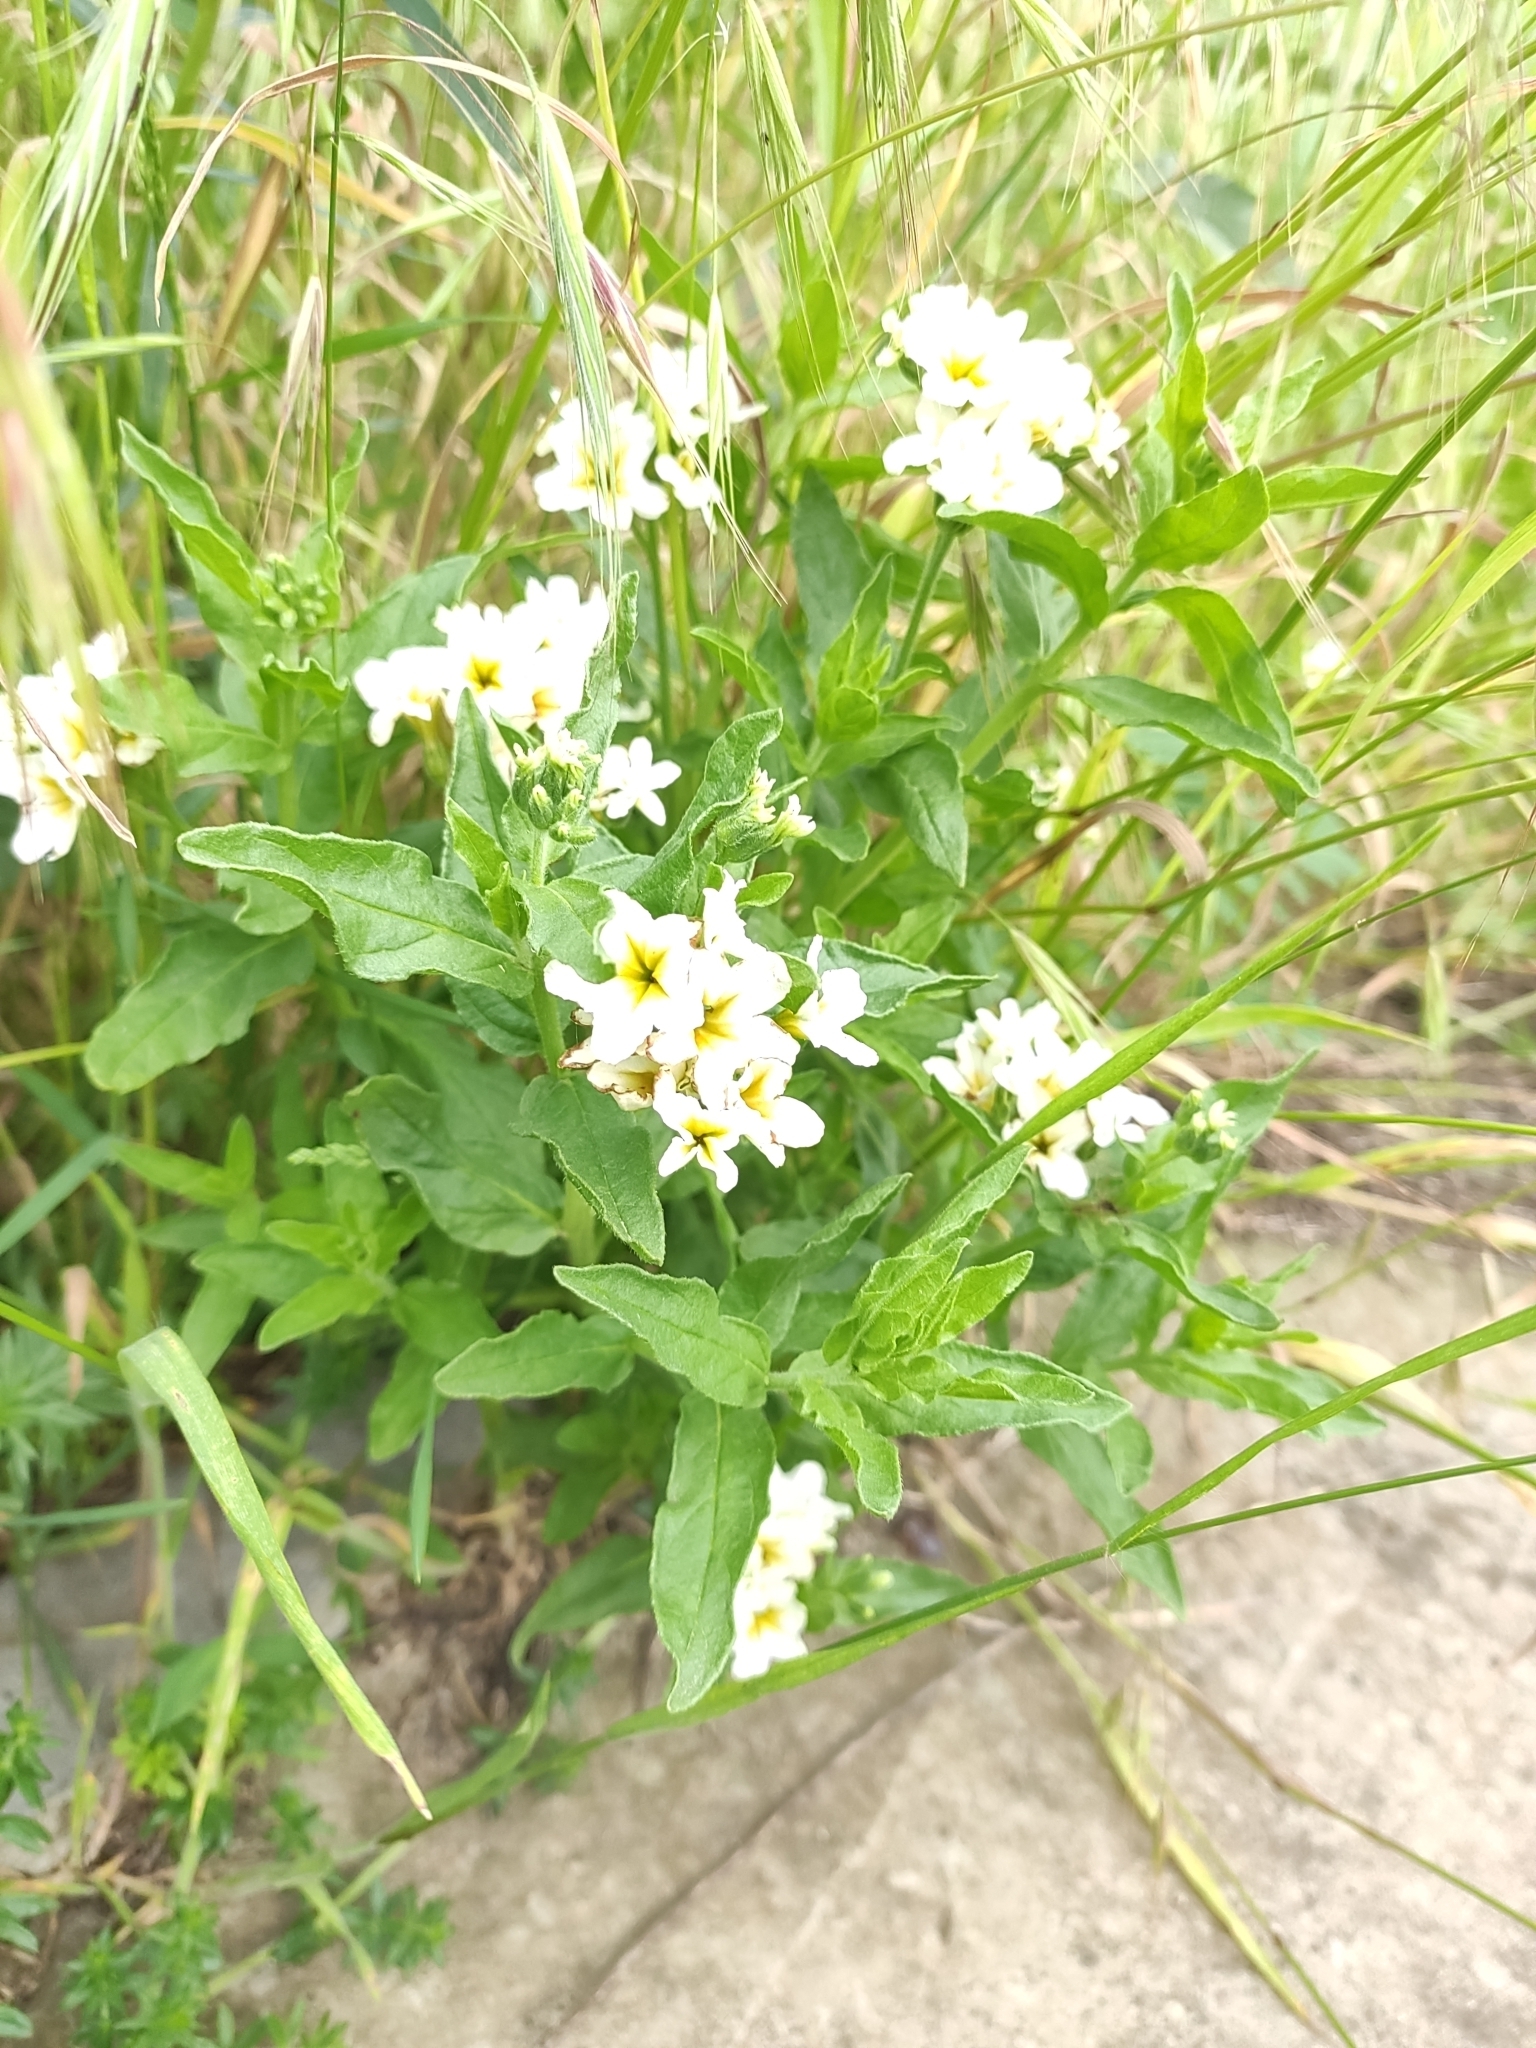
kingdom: Plantae
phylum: Tracheophyta
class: Magnoliopsida
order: Boraginales
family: Heliotropiaceae
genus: Tournefortia
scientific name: Tournefortia sibirica
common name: Siberian sea rosemary
